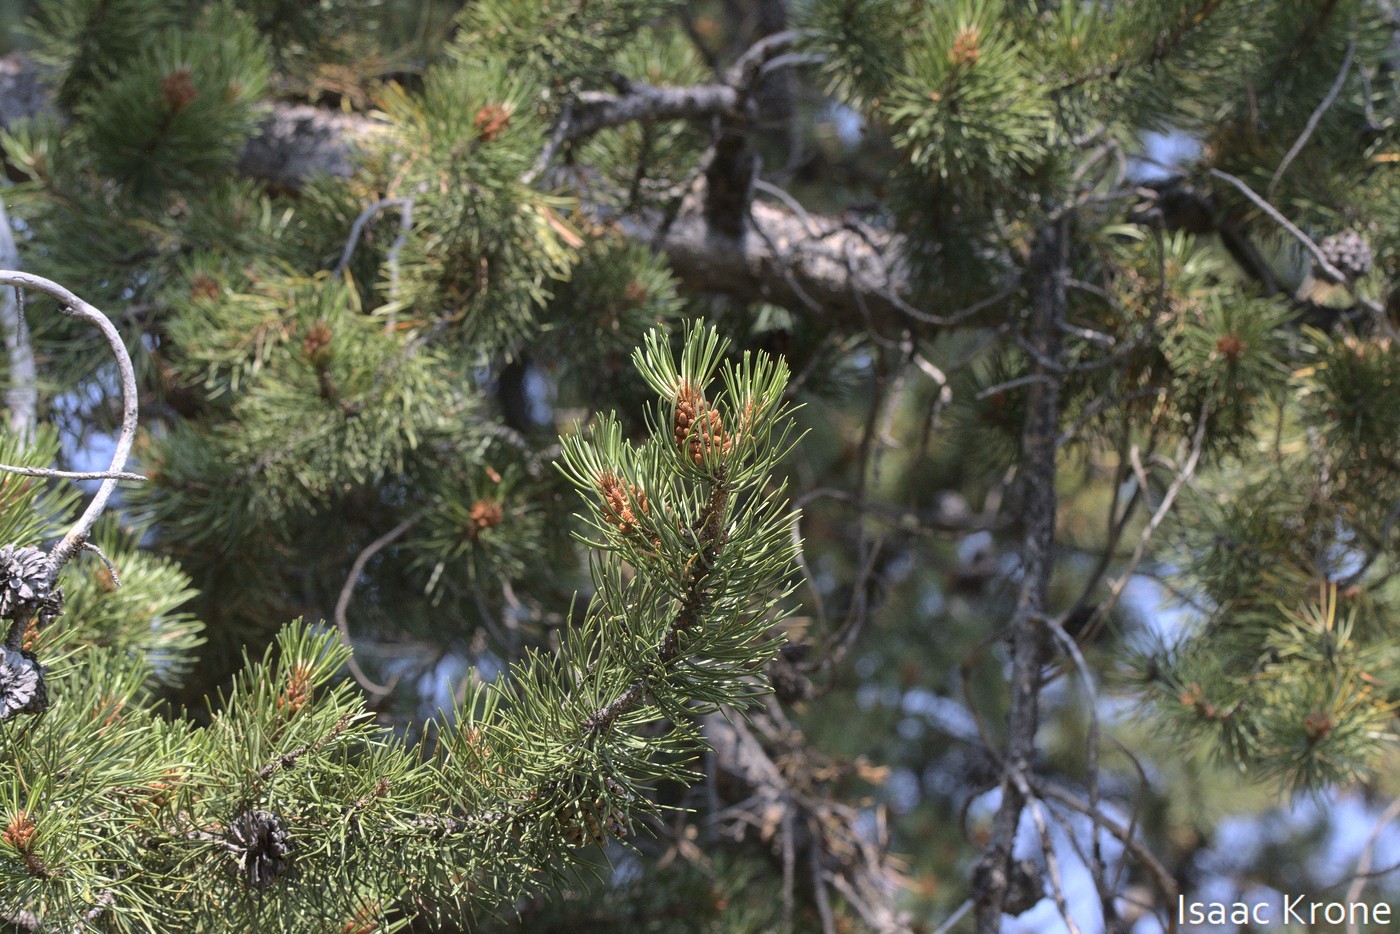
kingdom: Plantae
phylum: Tracheophyta
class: Pinopsida
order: Pinales
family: Pinaceae
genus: Pinus
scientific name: Pinus contorta
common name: Lodgepole pine
